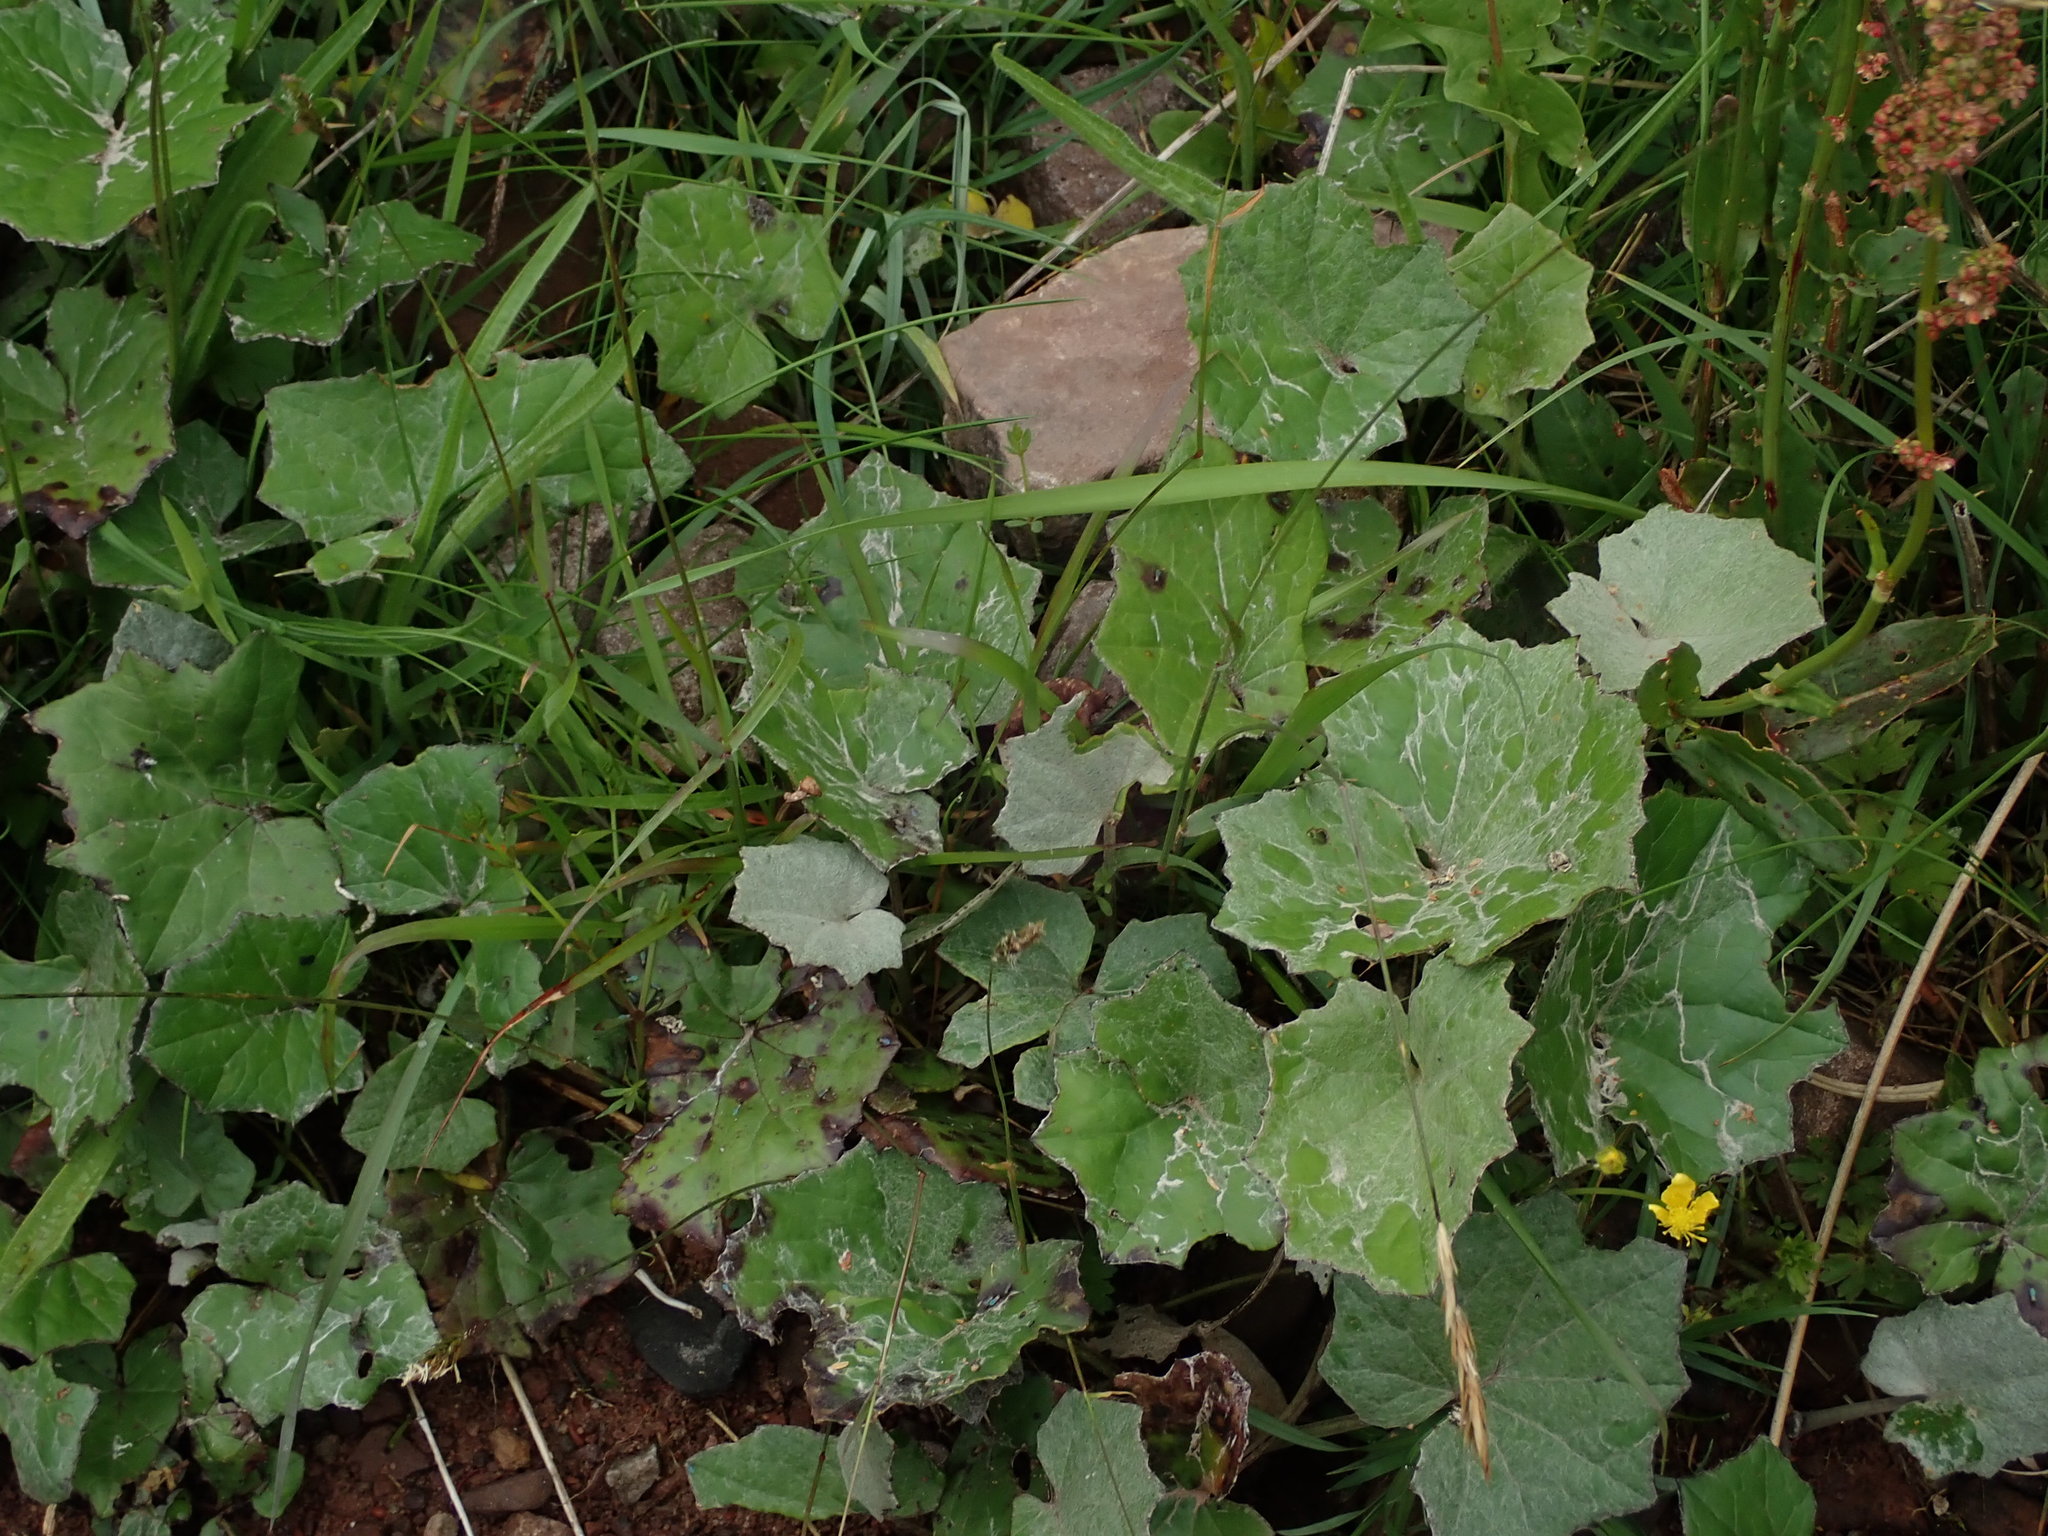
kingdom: Plantae
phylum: Tracheophyta
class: Magnoliopsida
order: Asterales
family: Asteraceae
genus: Tussilago
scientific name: Tussilago farfara
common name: Coltsfoot
